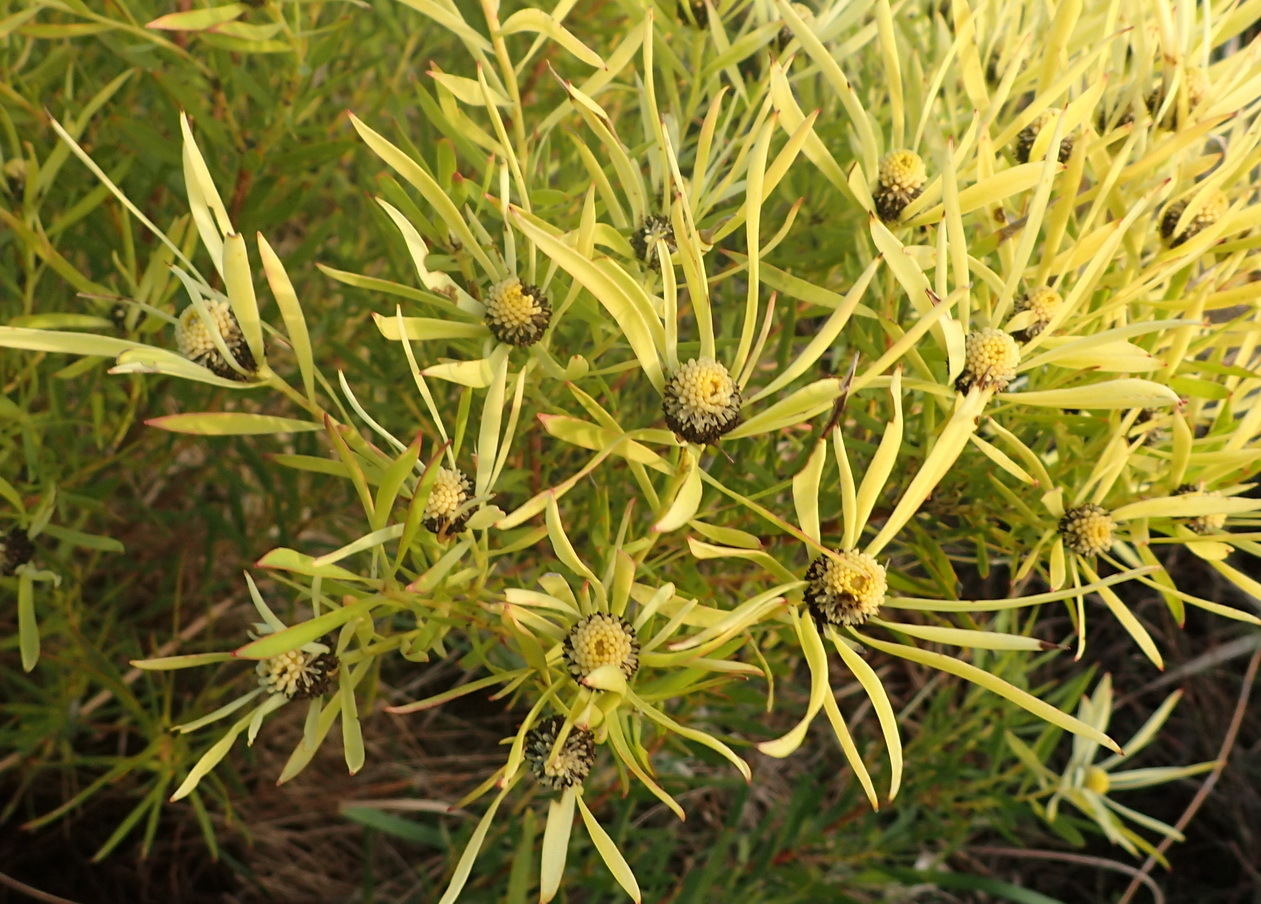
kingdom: Plantae
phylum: Tracheophyta
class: Magnoliopsida
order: Proteales
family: Proteaceae
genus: Leucadendron
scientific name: Leucadendron salignum
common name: Common sunshine conebush
